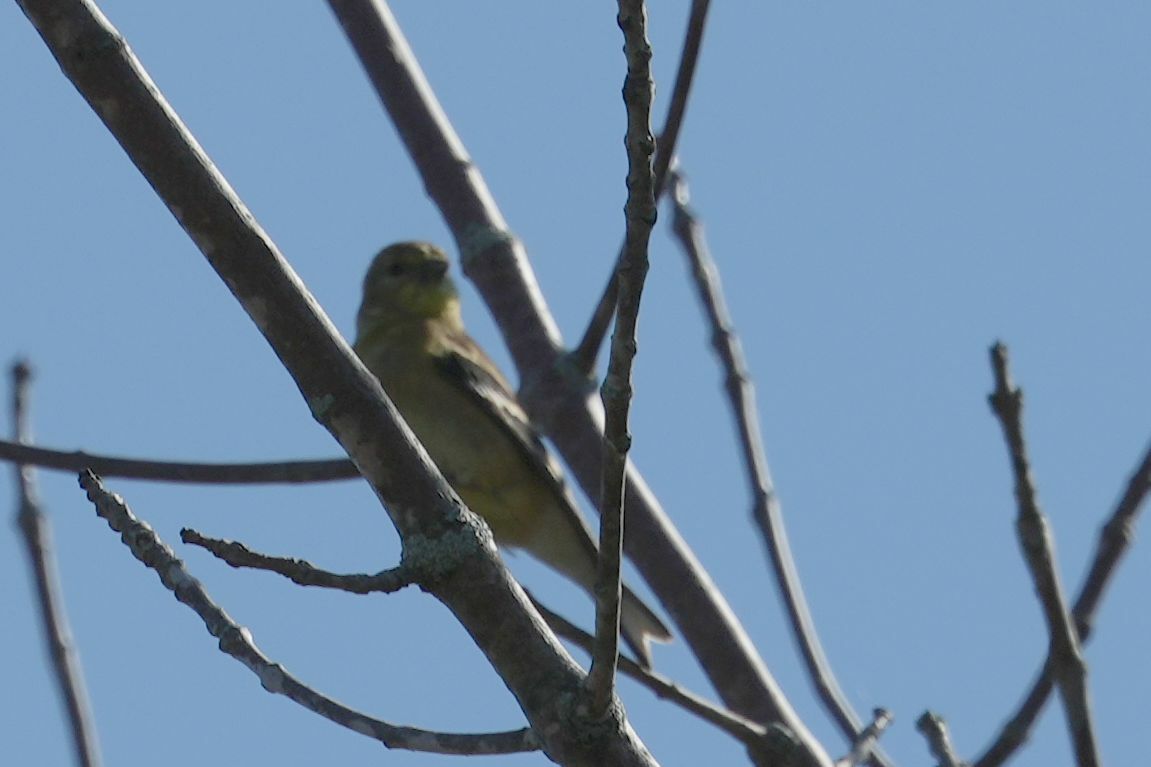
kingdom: Animalia
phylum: Chordata
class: Aves
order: Passeriformes
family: Fringillidae
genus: Spinus
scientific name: Spinus tristis
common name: American goldfinch
